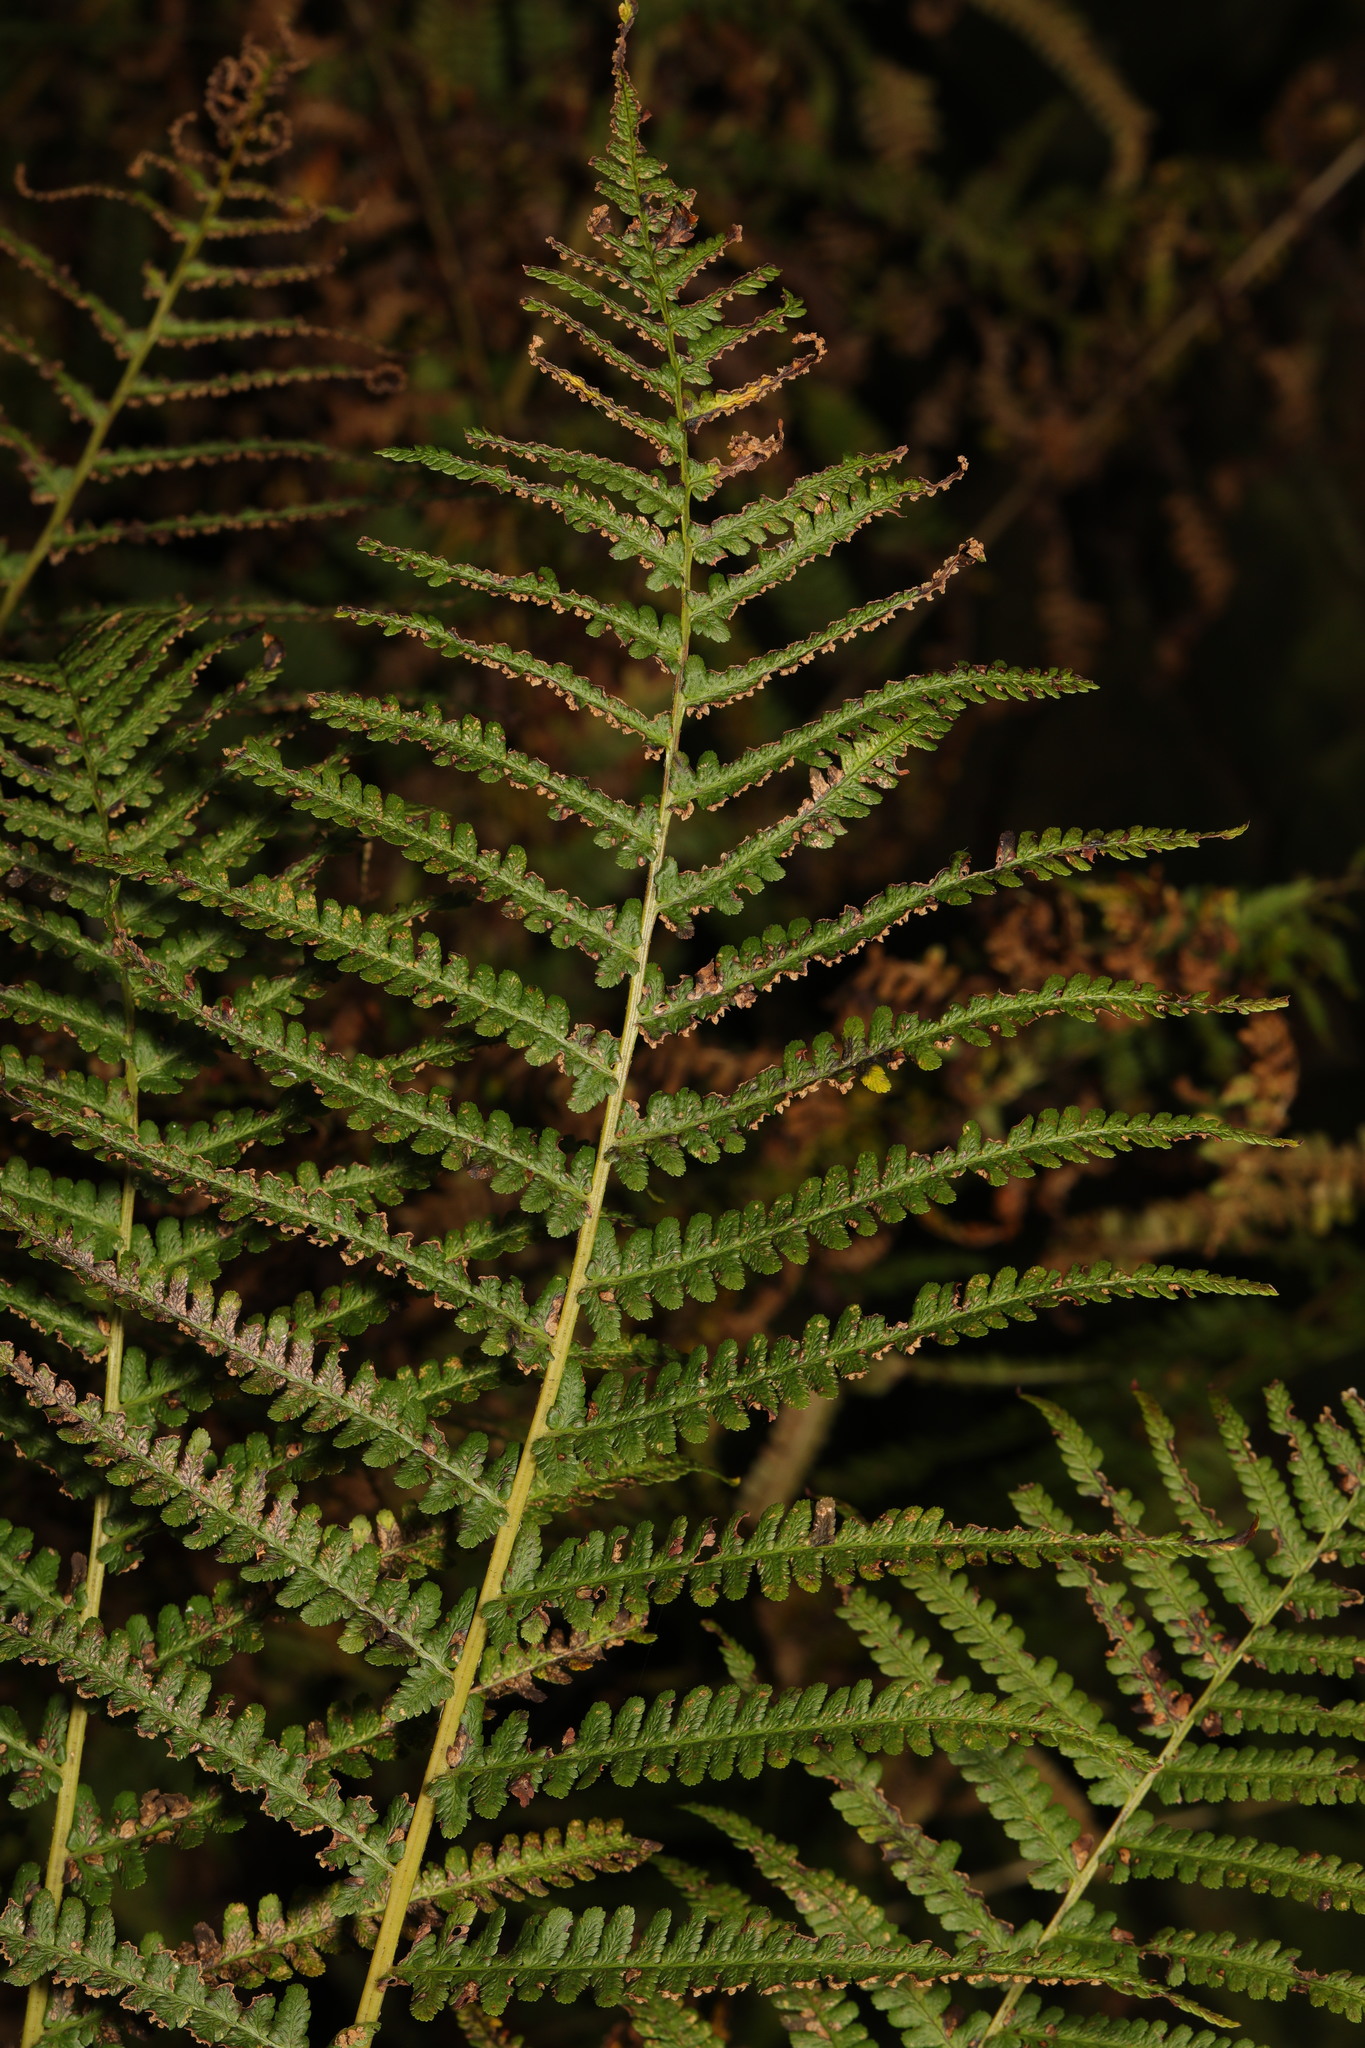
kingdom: Plantae
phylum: Tracheophyta
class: Polypodiopsida
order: Polypodiales
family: Dryopteridaceae
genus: Dryopteris
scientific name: Dryopteris filix-mas
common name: Male fern
